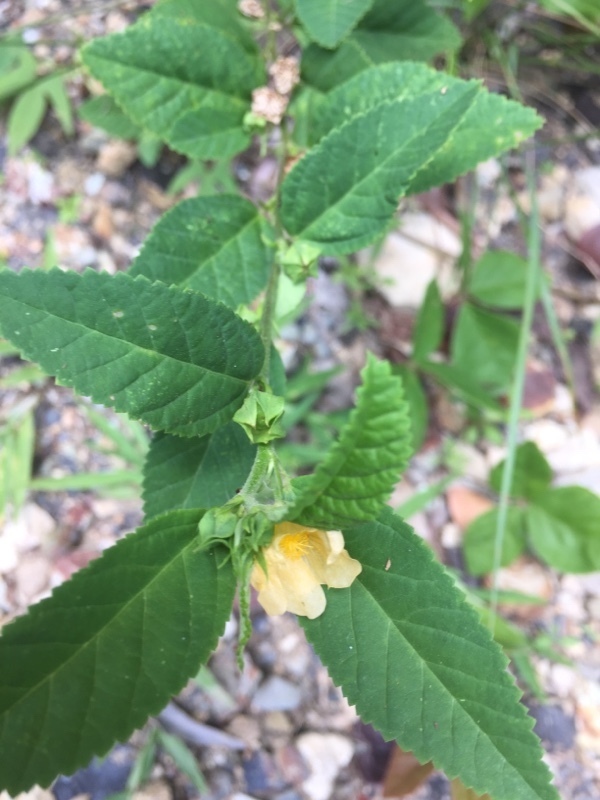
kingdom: Plantae
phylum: Tracheophyta
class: Magnoliopsida
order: Malvales
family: Malvaceae
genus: Sida
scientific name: Sida rhombifolia
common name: Queensland-hemp
